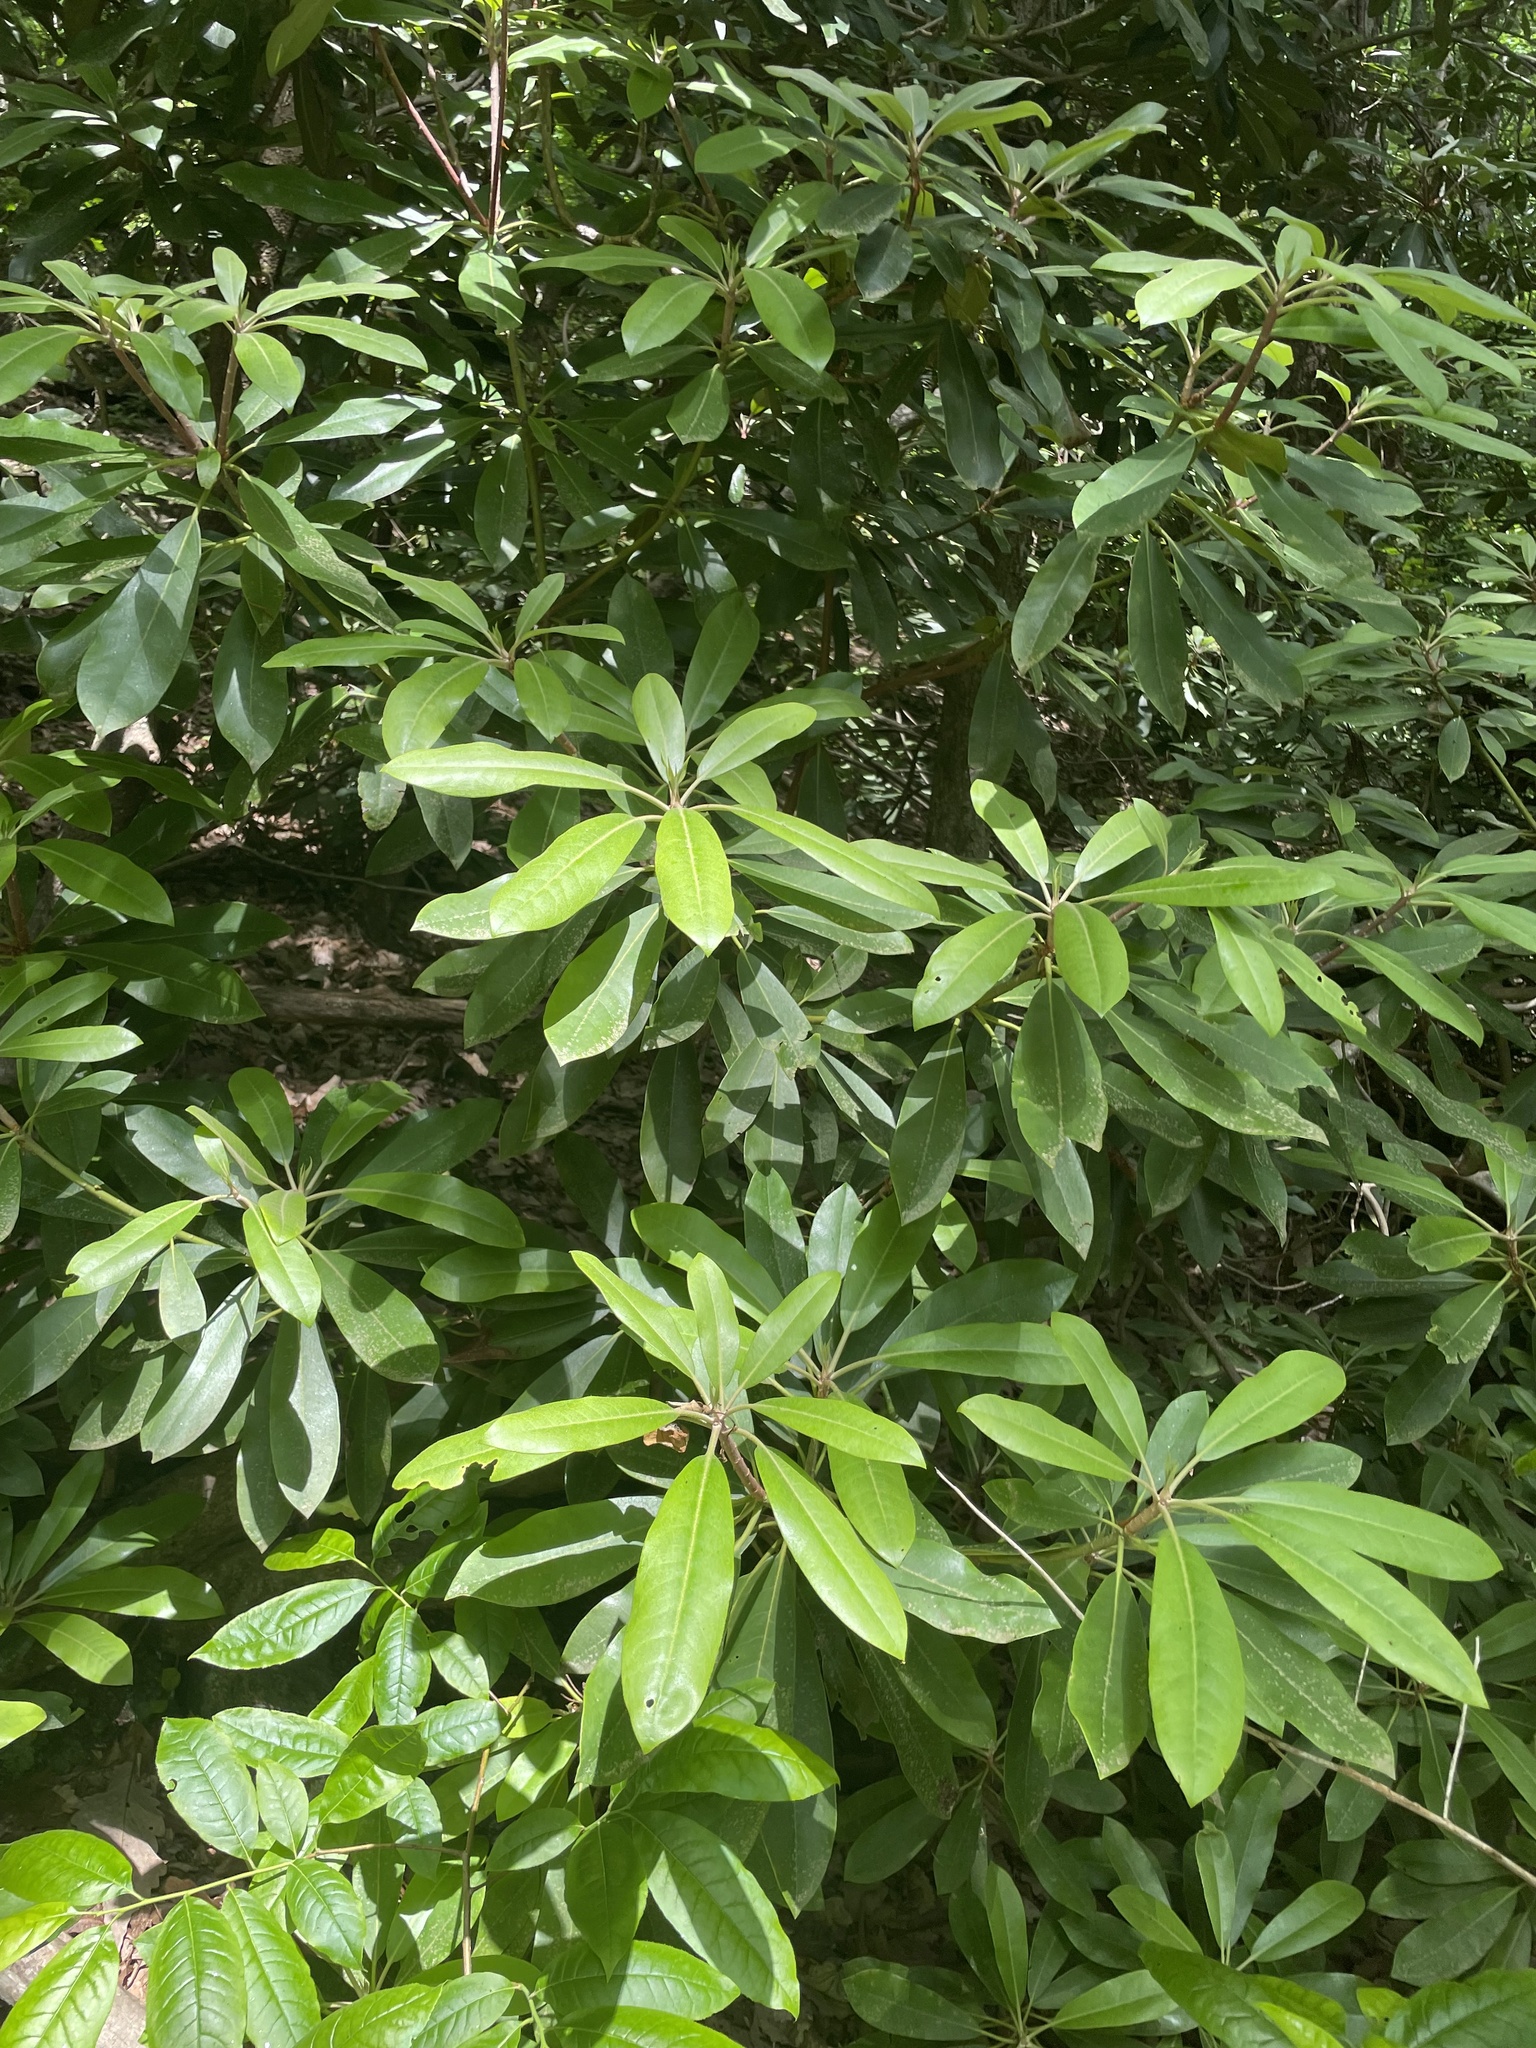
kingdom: Plantae
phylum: Tracheophyta
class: Magnoliopsida
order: Ericales
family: Ericaceae
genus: Rhododendron
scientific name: Rhododendron maximum
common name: Great rhododendron
